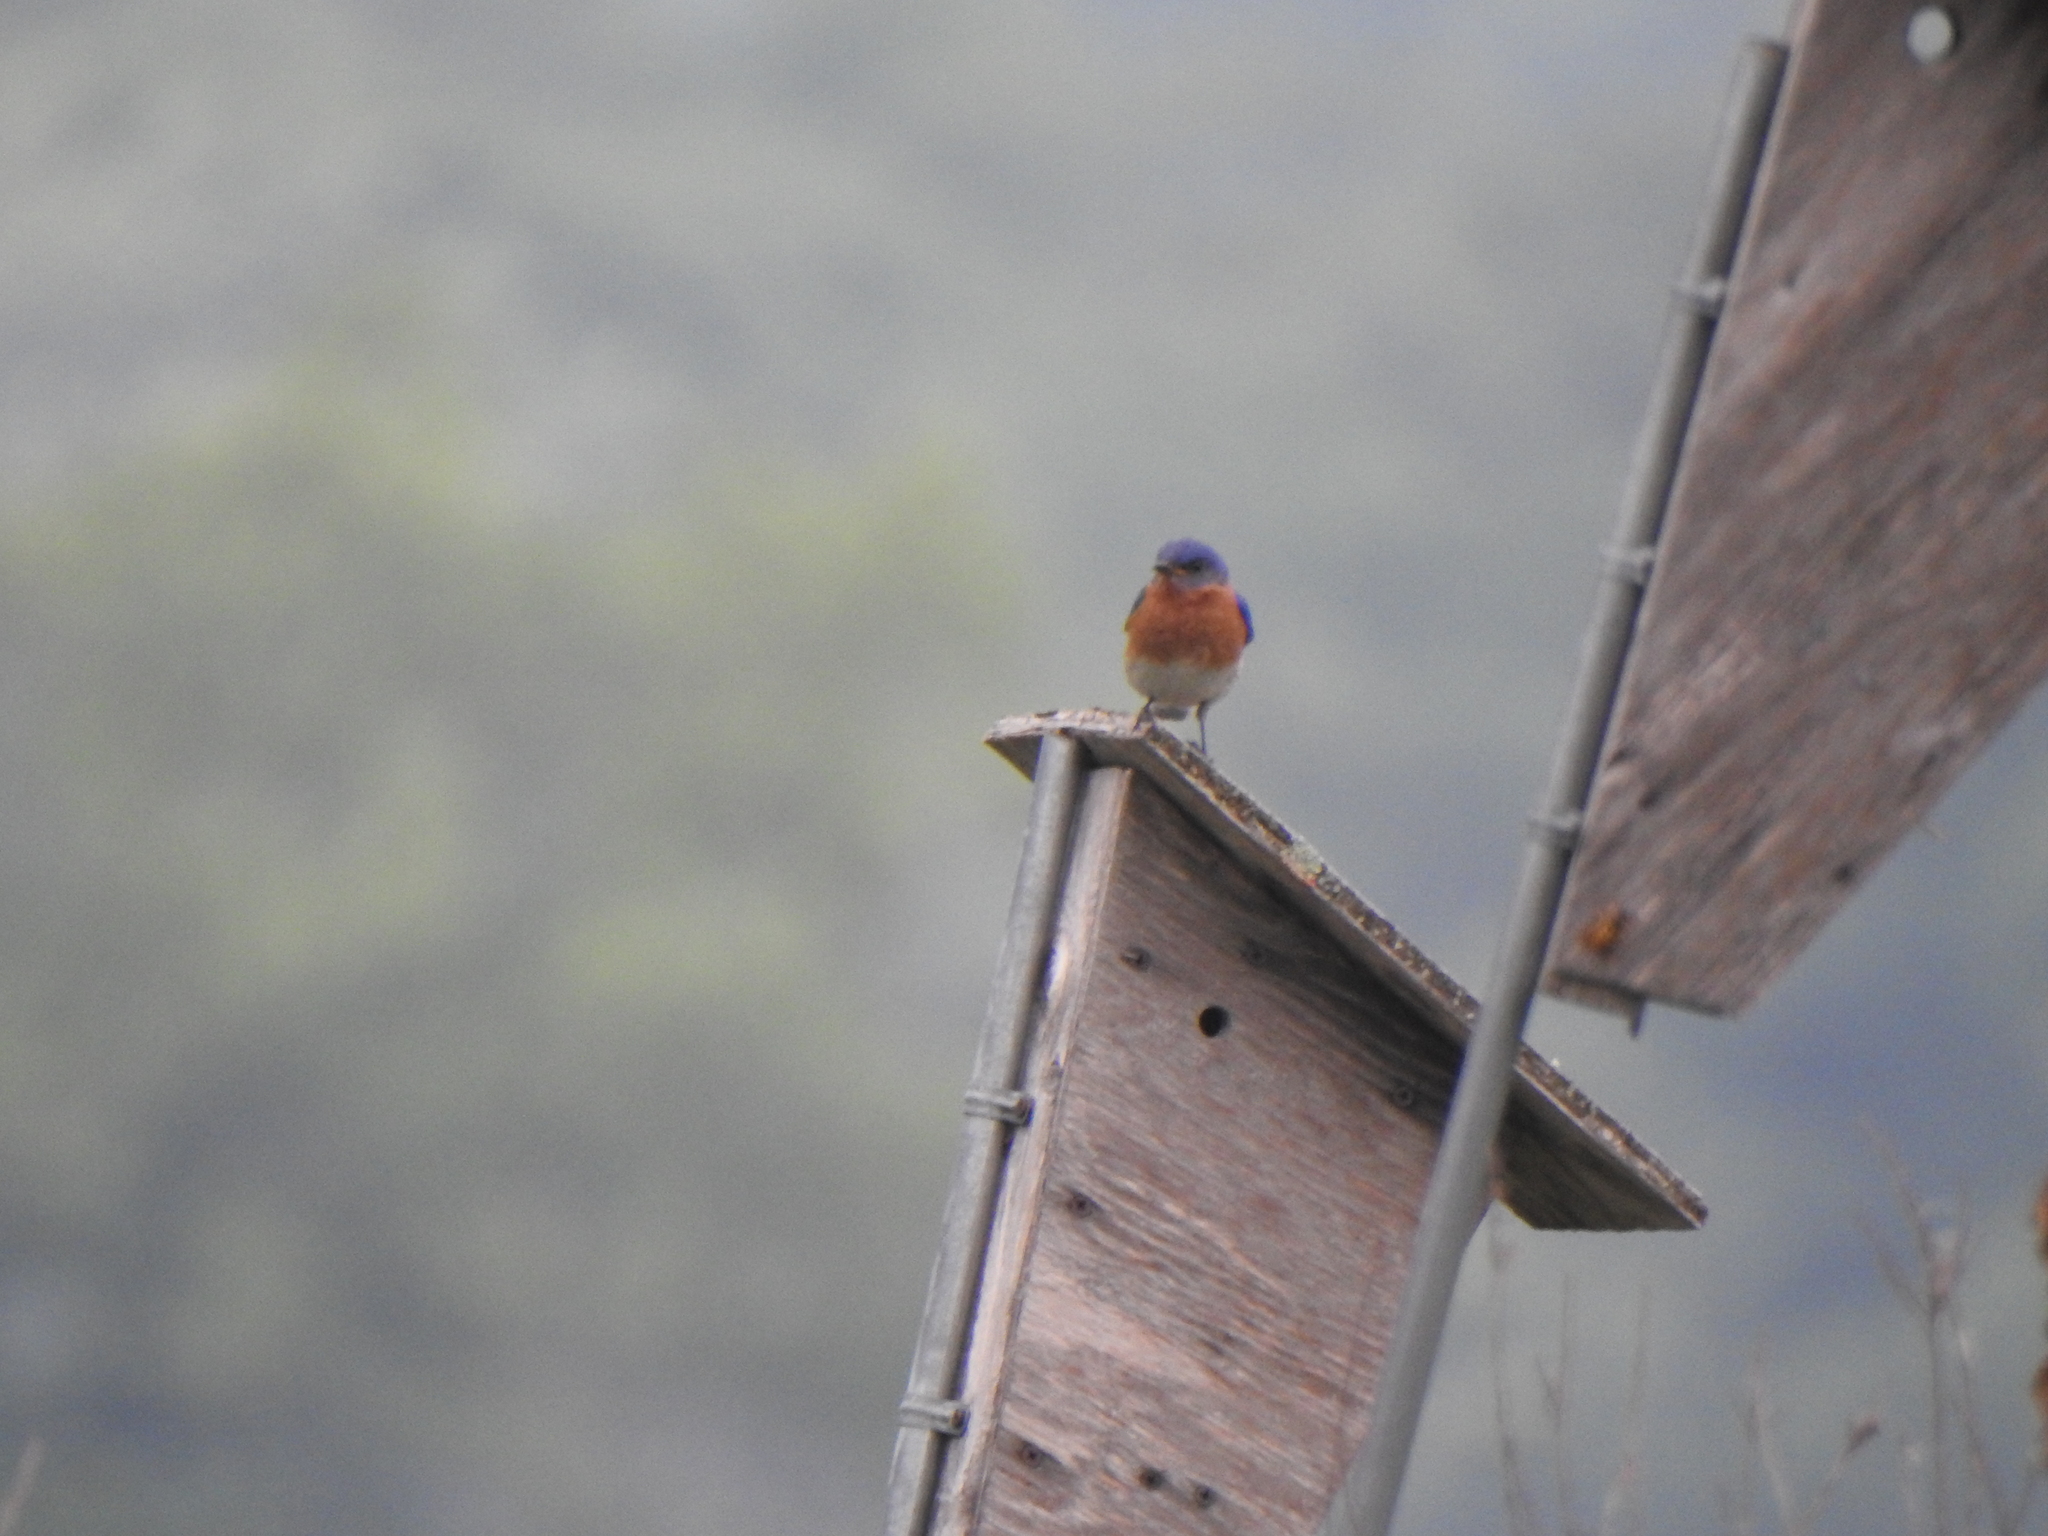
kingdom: Animalia
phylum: Chordata
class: Aves
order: Passeriformes
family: Turdidae
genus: Sialia
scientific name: Sialia sialis
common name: Eastern bluebird
